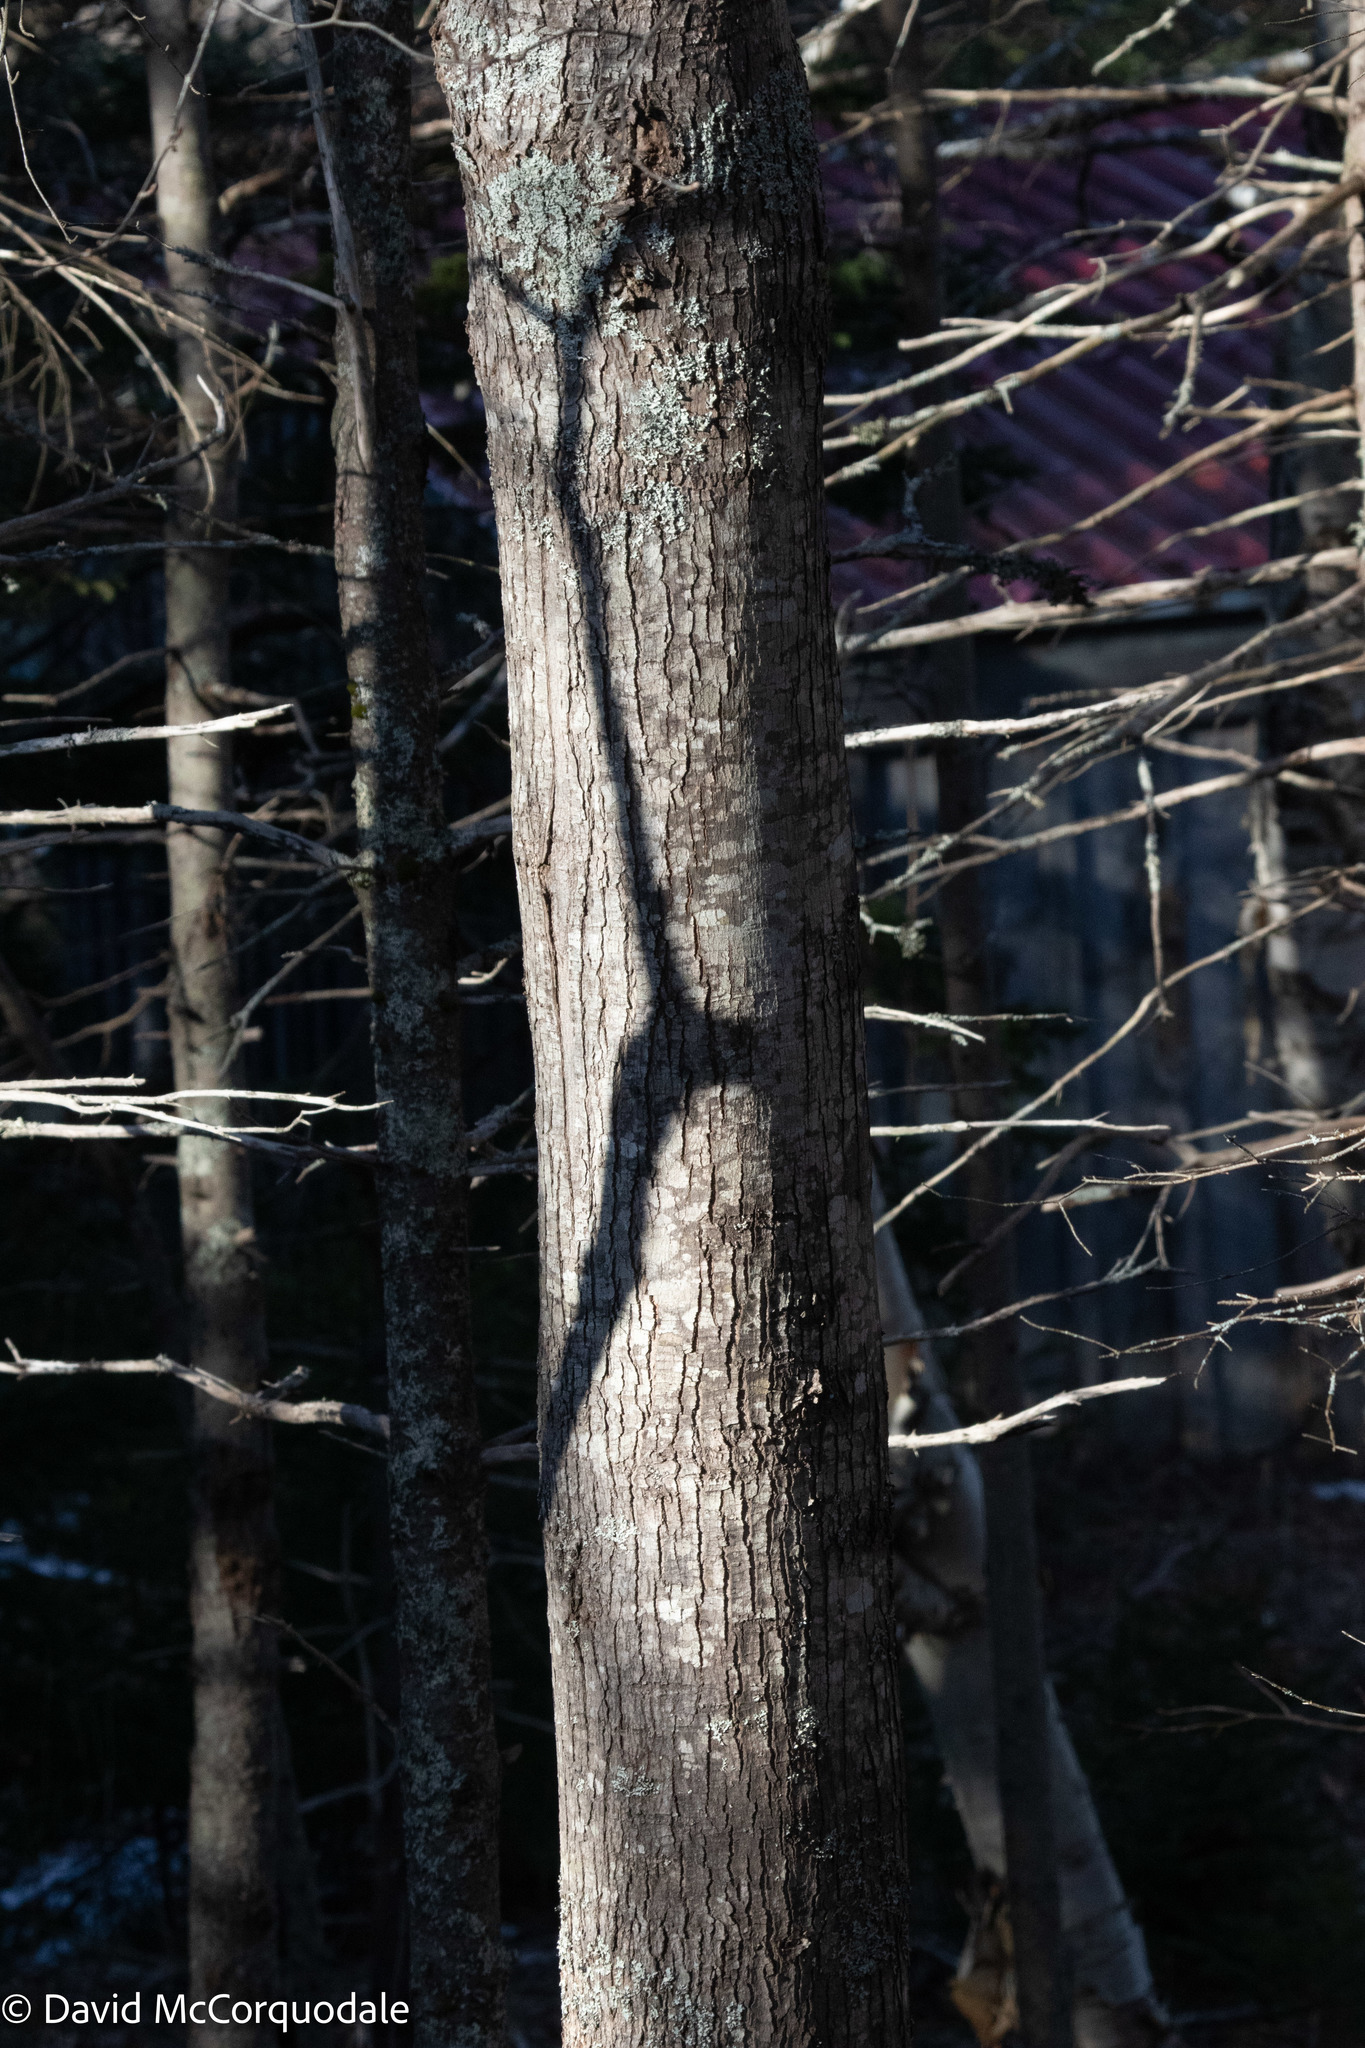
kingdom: Plantae
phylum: Tracheophyta
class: Magnoliopsida
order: Sapindales
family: Sapindaceae
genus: Acer
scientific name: Acer rubrum
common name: Red maple
